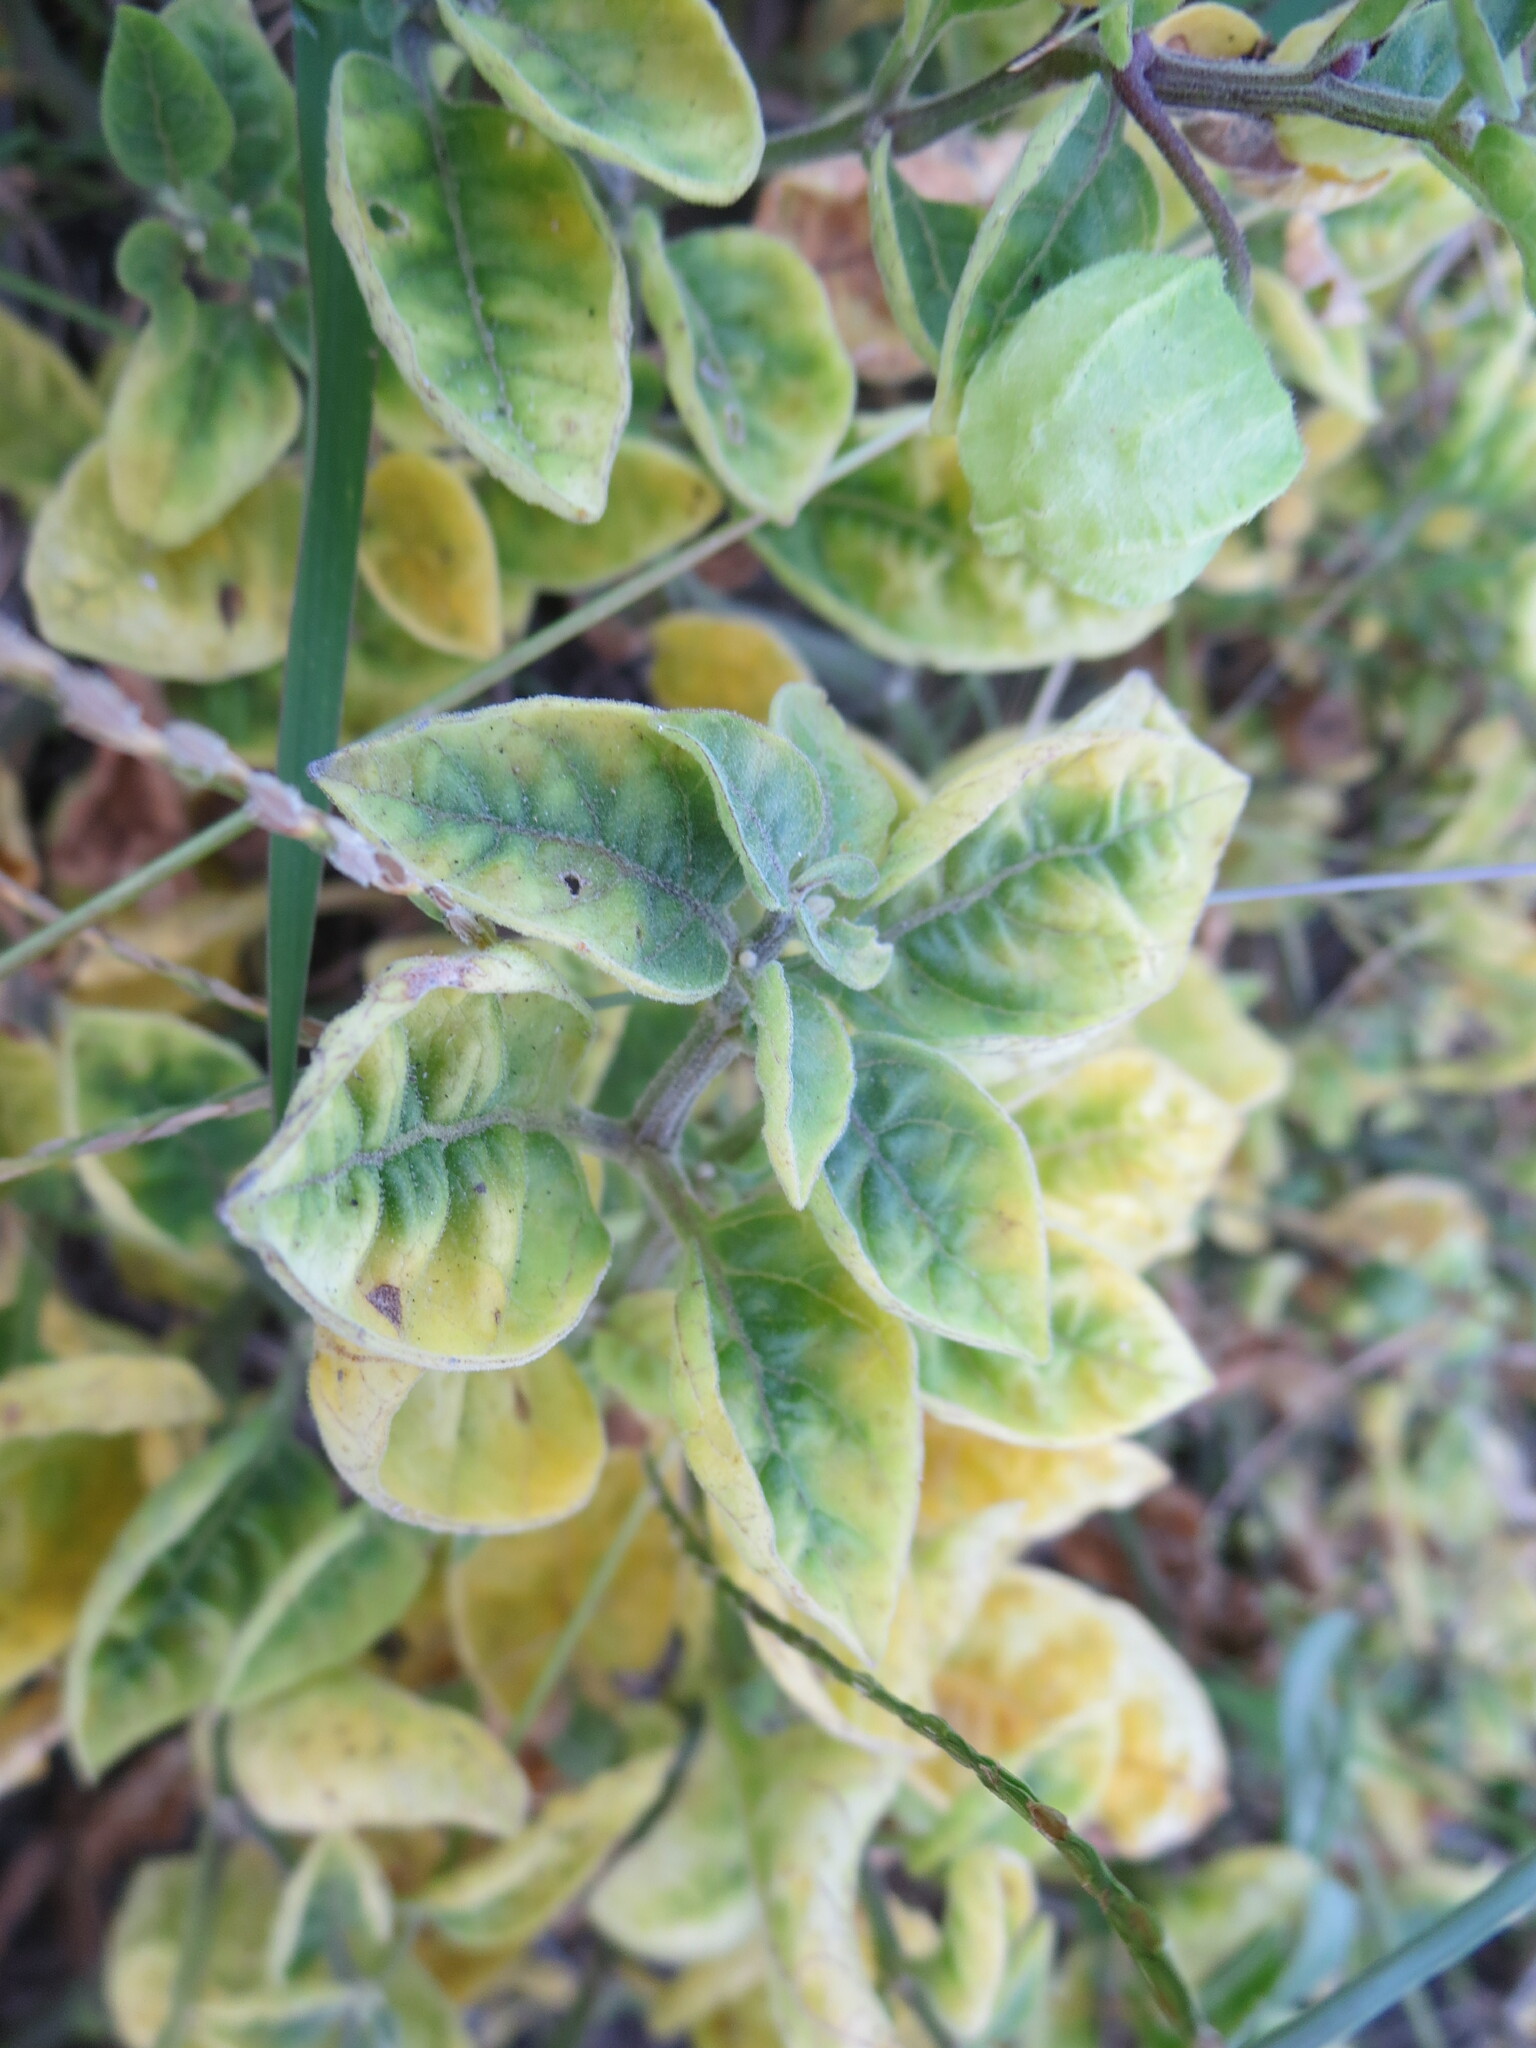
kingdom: Plantae
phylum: Tracheophyta
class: Magnoliopsida
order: Solanales
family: Solanaceae
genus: Physalis
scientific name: Physalis walteri
